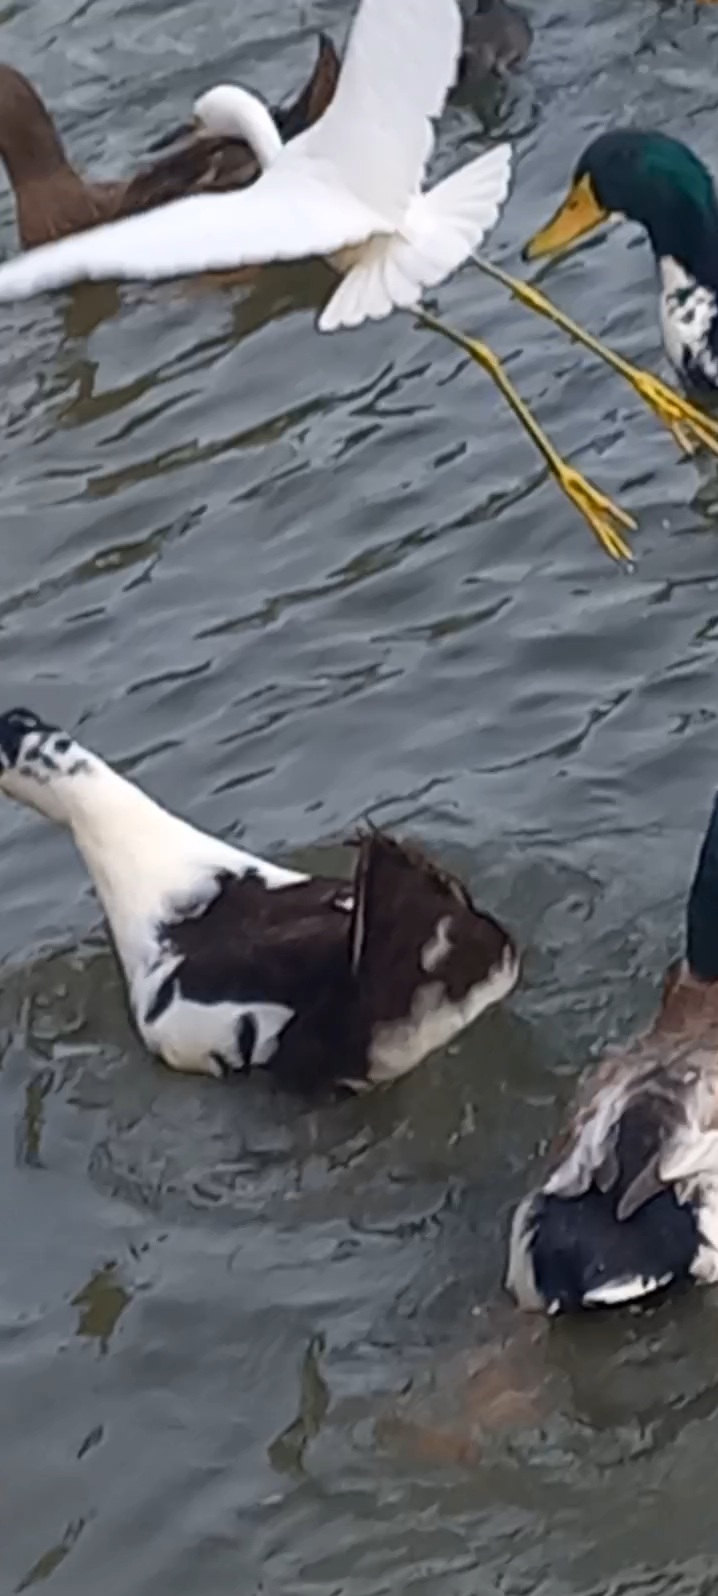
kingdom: Animalia
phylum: Chordata
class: Aves
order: Pelecaniformes
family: Ardeidae
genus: Egretta
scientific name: Egretta thula
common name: Snowy egret
